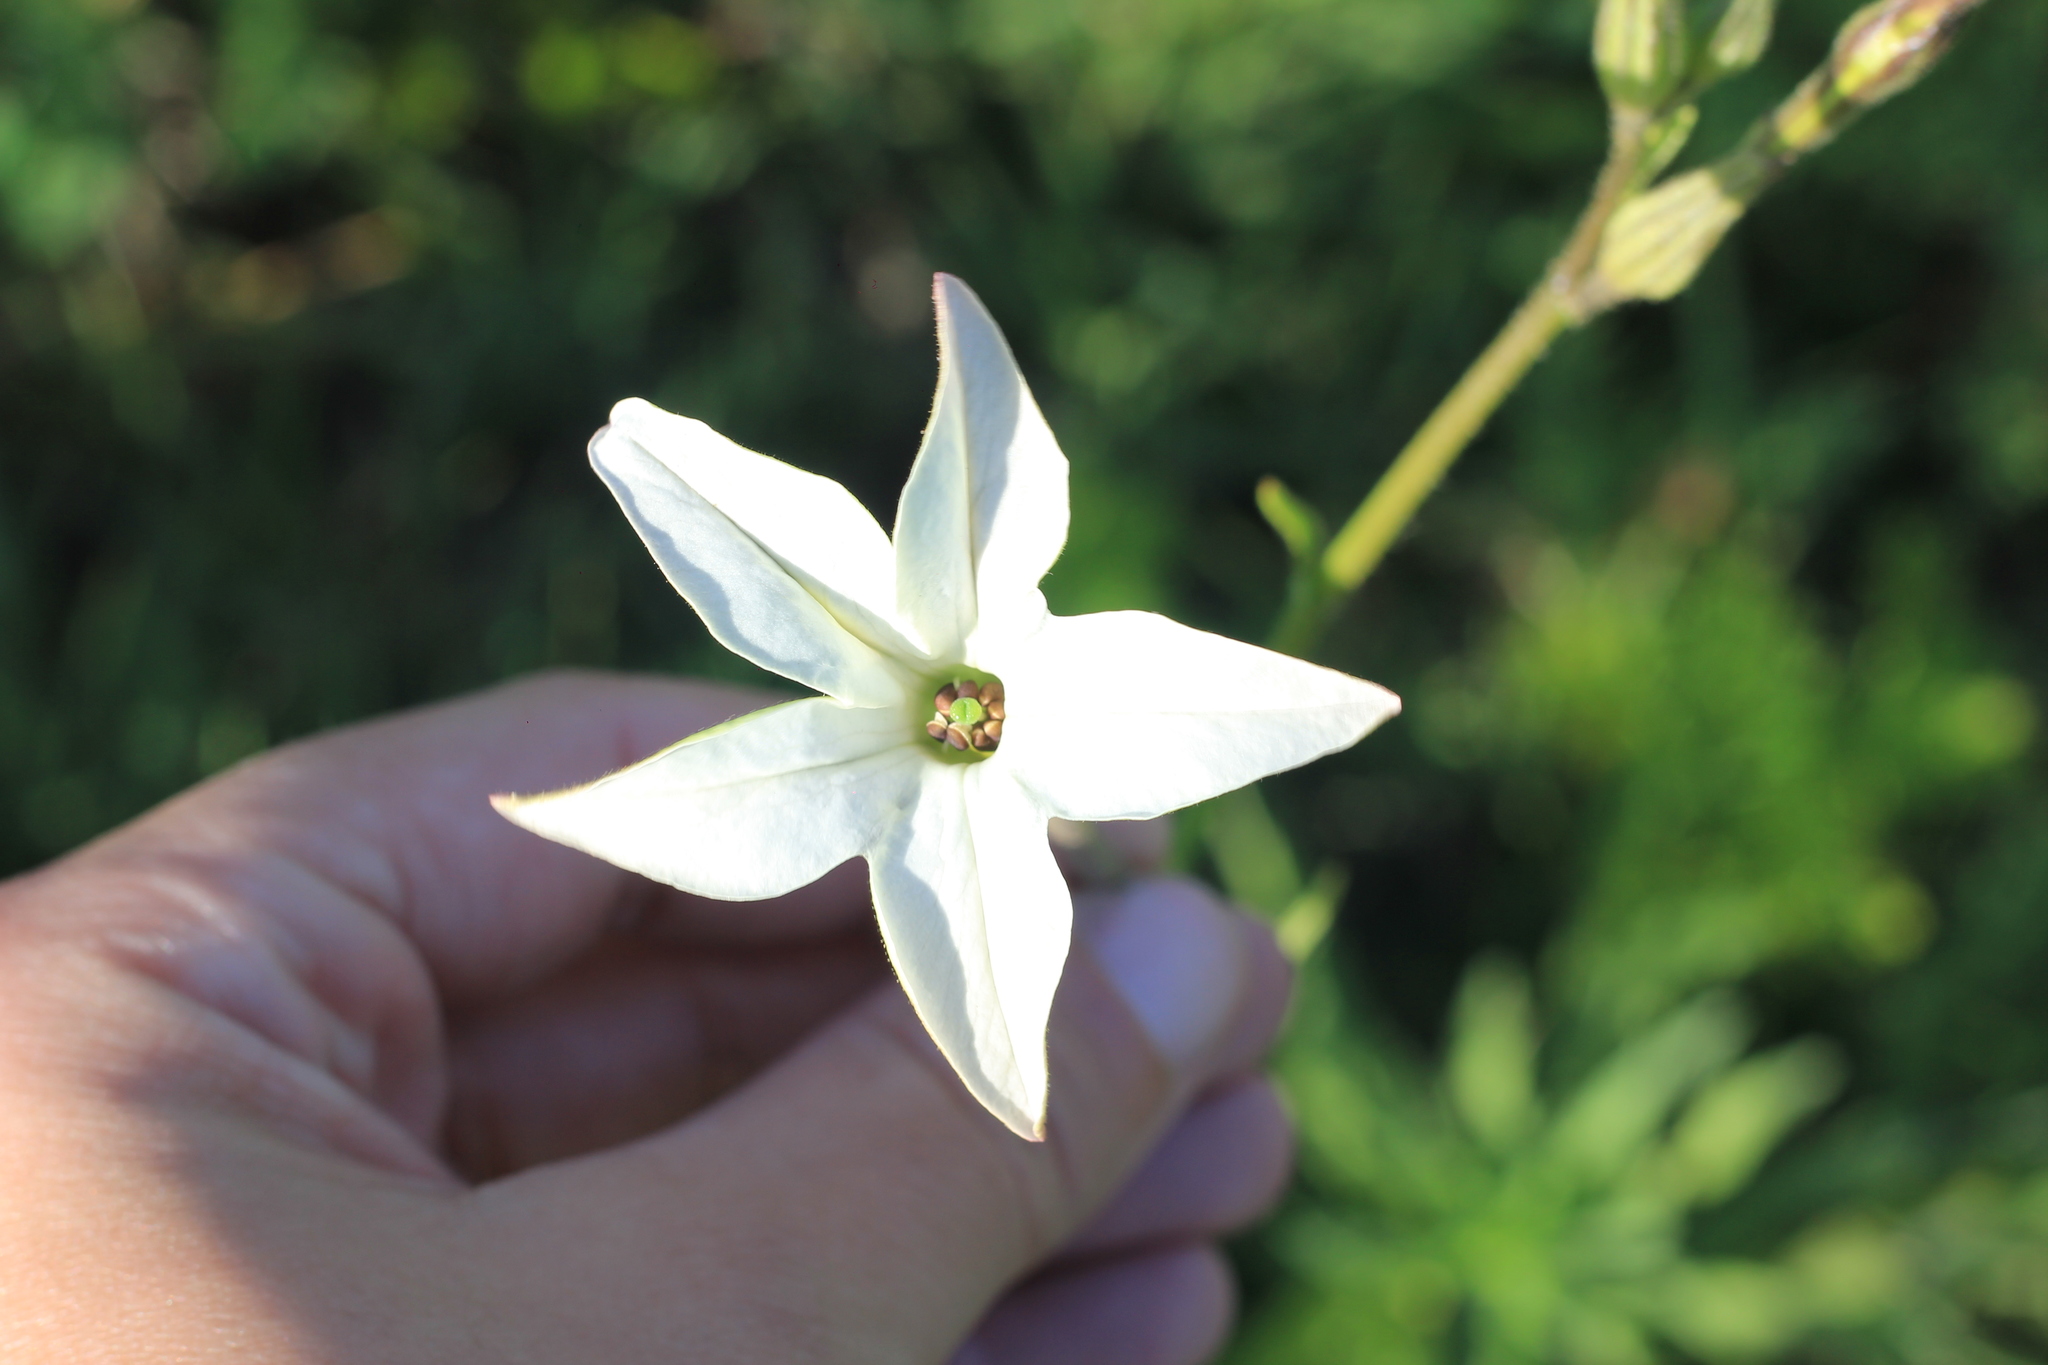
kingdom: Plantae
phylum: Tracheophyta
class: Magnoliopsida
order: Solanales
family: Solanaceae
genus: Nicotiana
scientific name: Nicotiana longiflora
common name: Long-flowered tobacco
